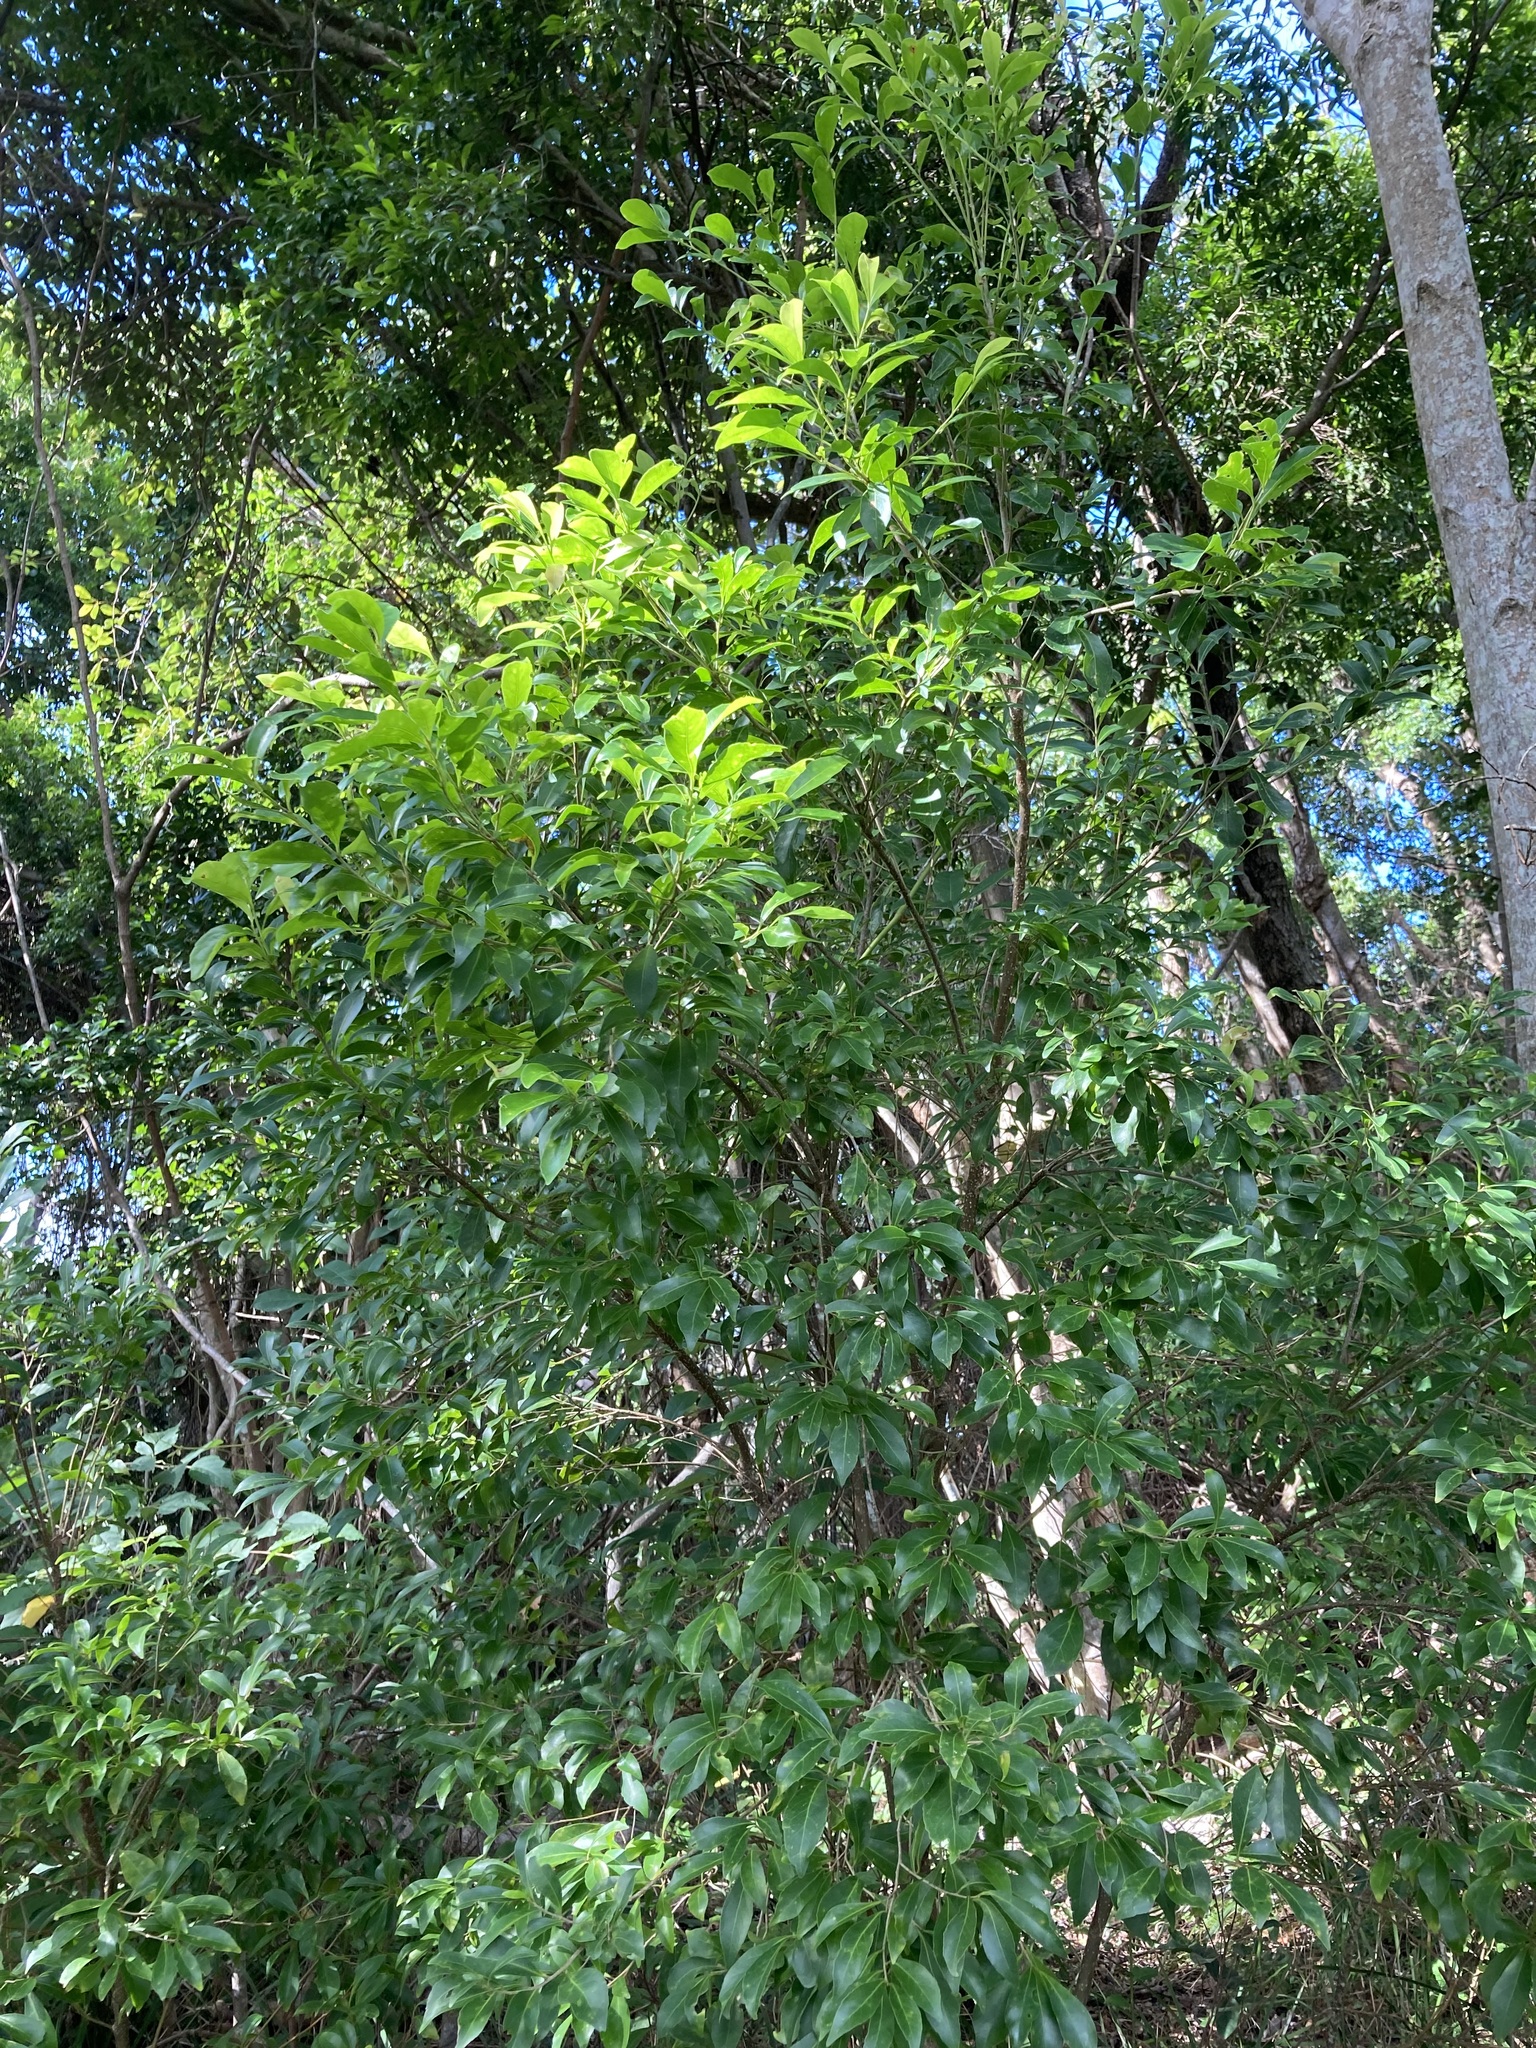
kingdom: Plantae
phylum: Tracheophyta
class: Magnoliopsida
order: Oxalidales
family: Elaeocarpaceae
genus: Elaeocarpus
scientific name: Elaeocarpus obovatus
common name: Freckled oliveberry
